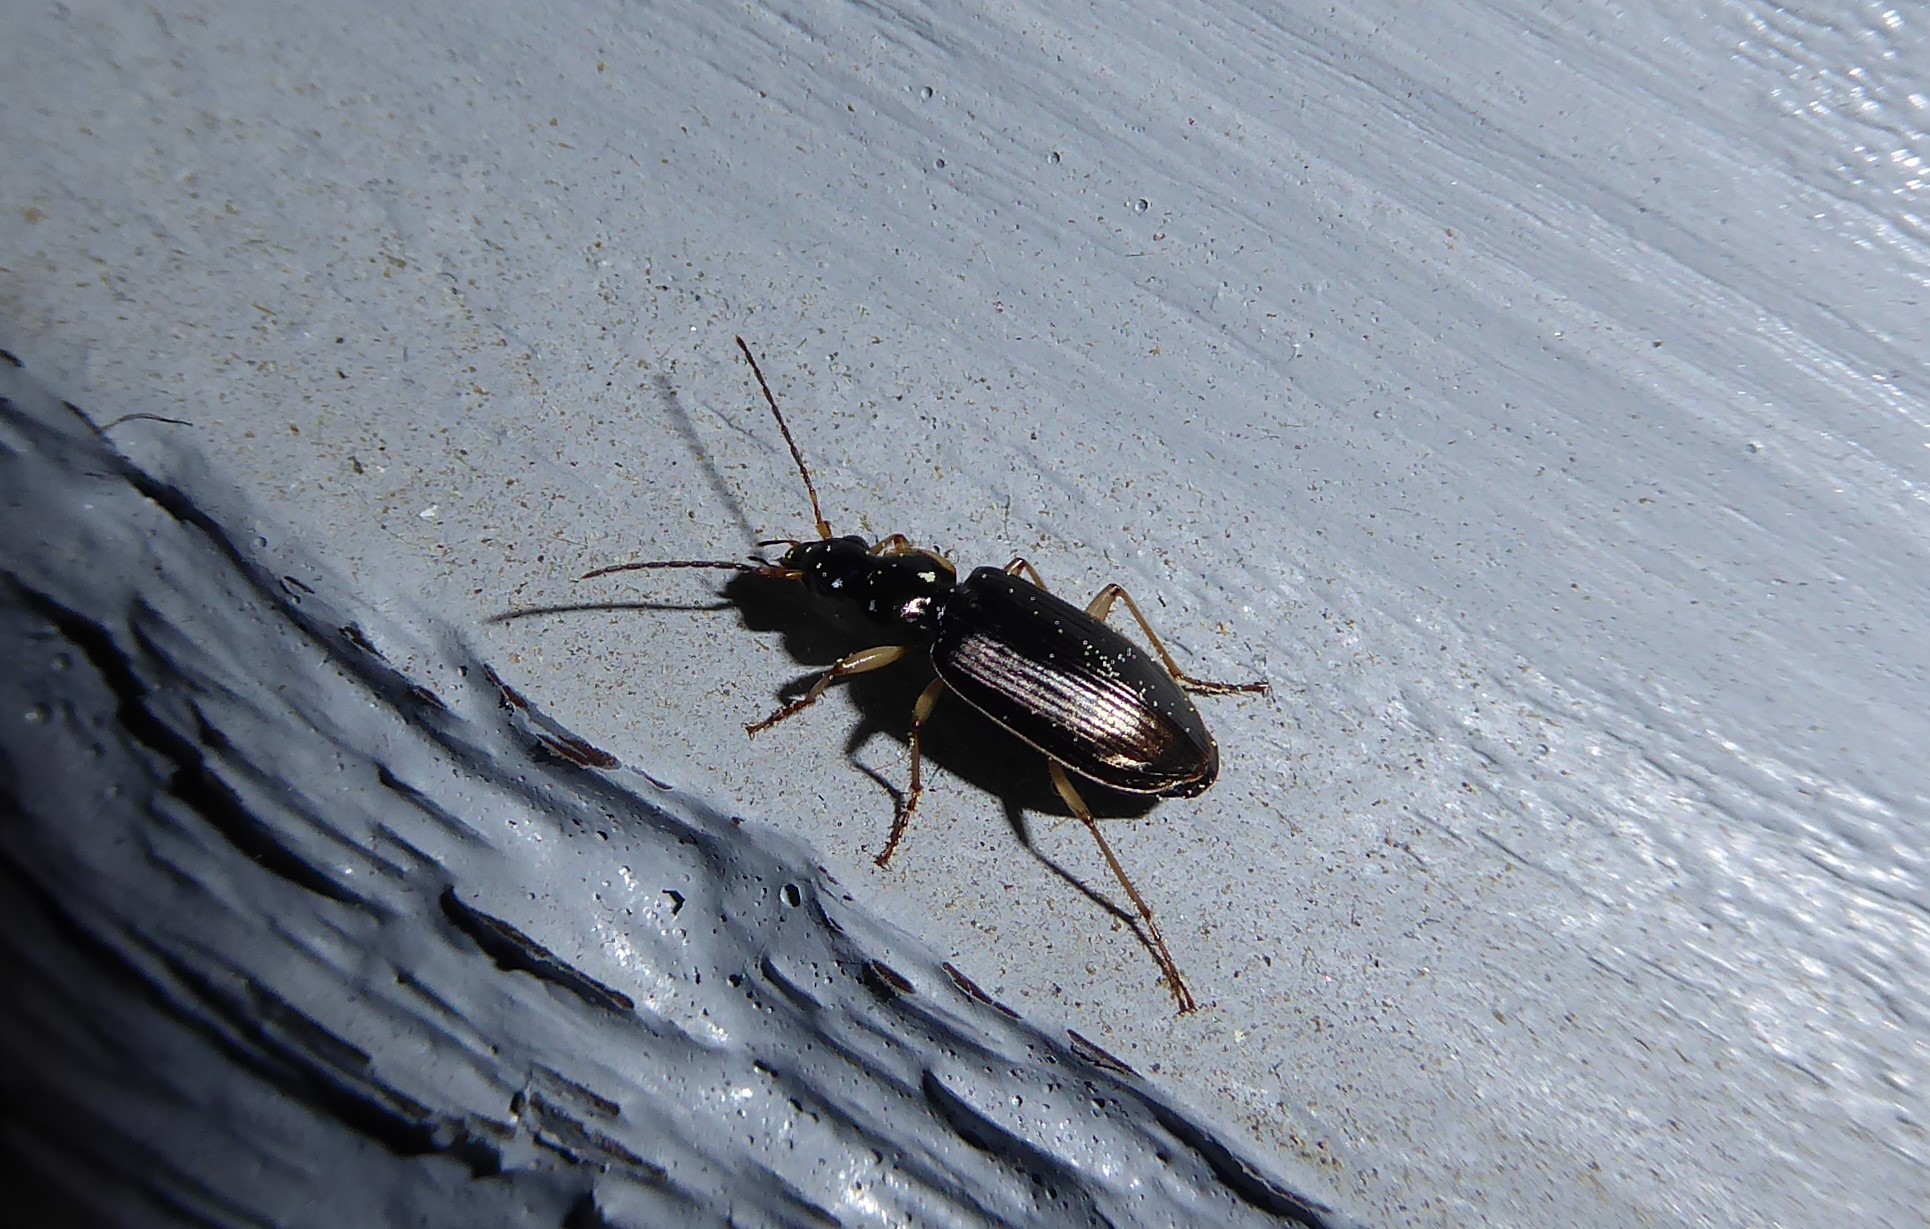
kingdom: Animalia
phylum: Arthropoda
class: Insecta
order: Coleoptera
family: Carabidae
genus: Notagonum
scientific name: Notagonum submetallicum
